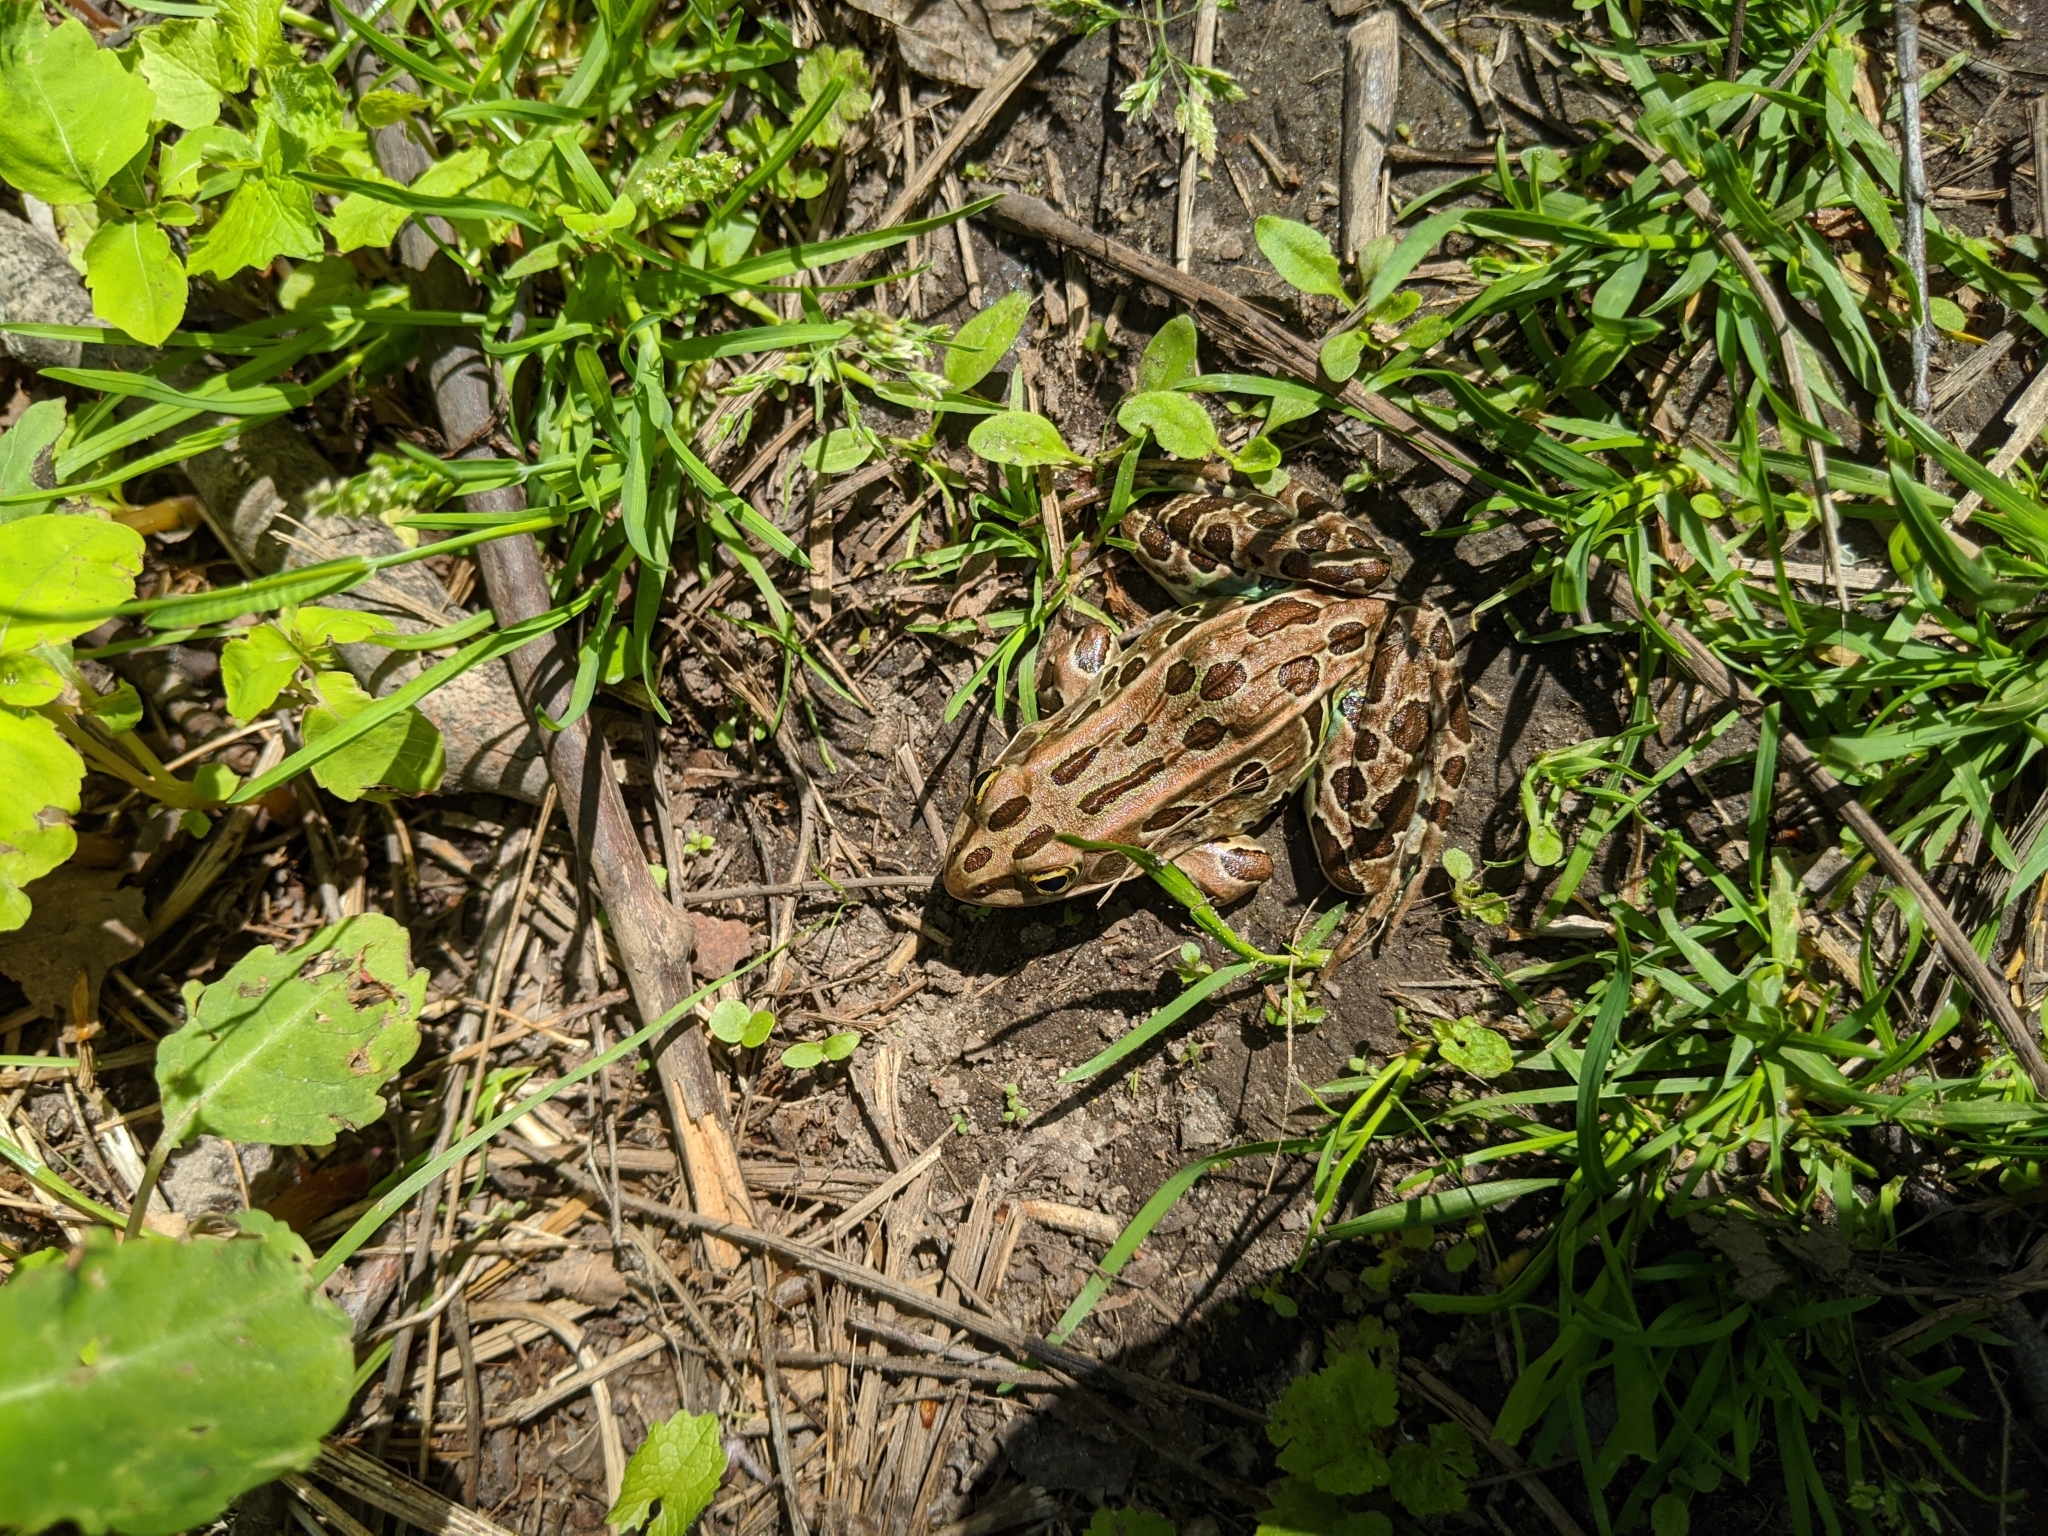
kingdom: Animalia
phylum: Chordata
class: Amphibia
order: Anura
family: Ranidae
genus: Lithobates
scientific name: Lithobates pipiens
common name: Northern leopard frog
